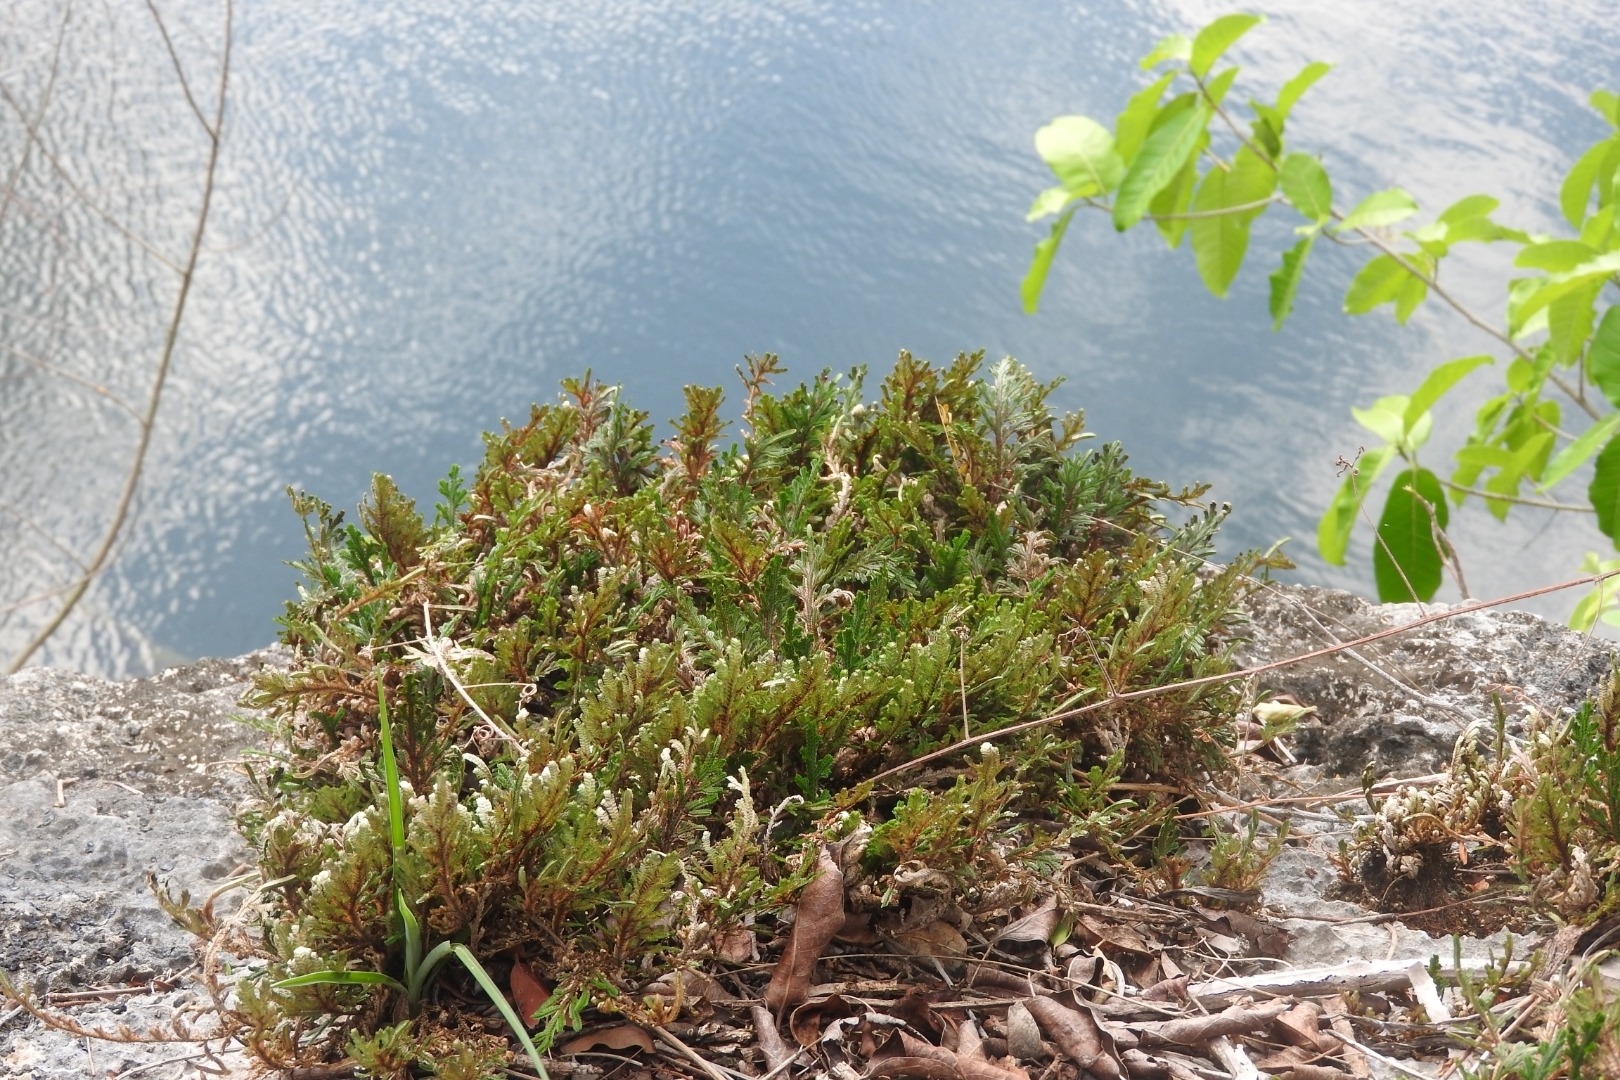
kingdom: Plantae
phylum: Tracheophyta
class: Lycopodiopsida
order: Selaginellales
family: Selaginellaceae
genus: Selaginella
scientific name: Selaginella convoluta
